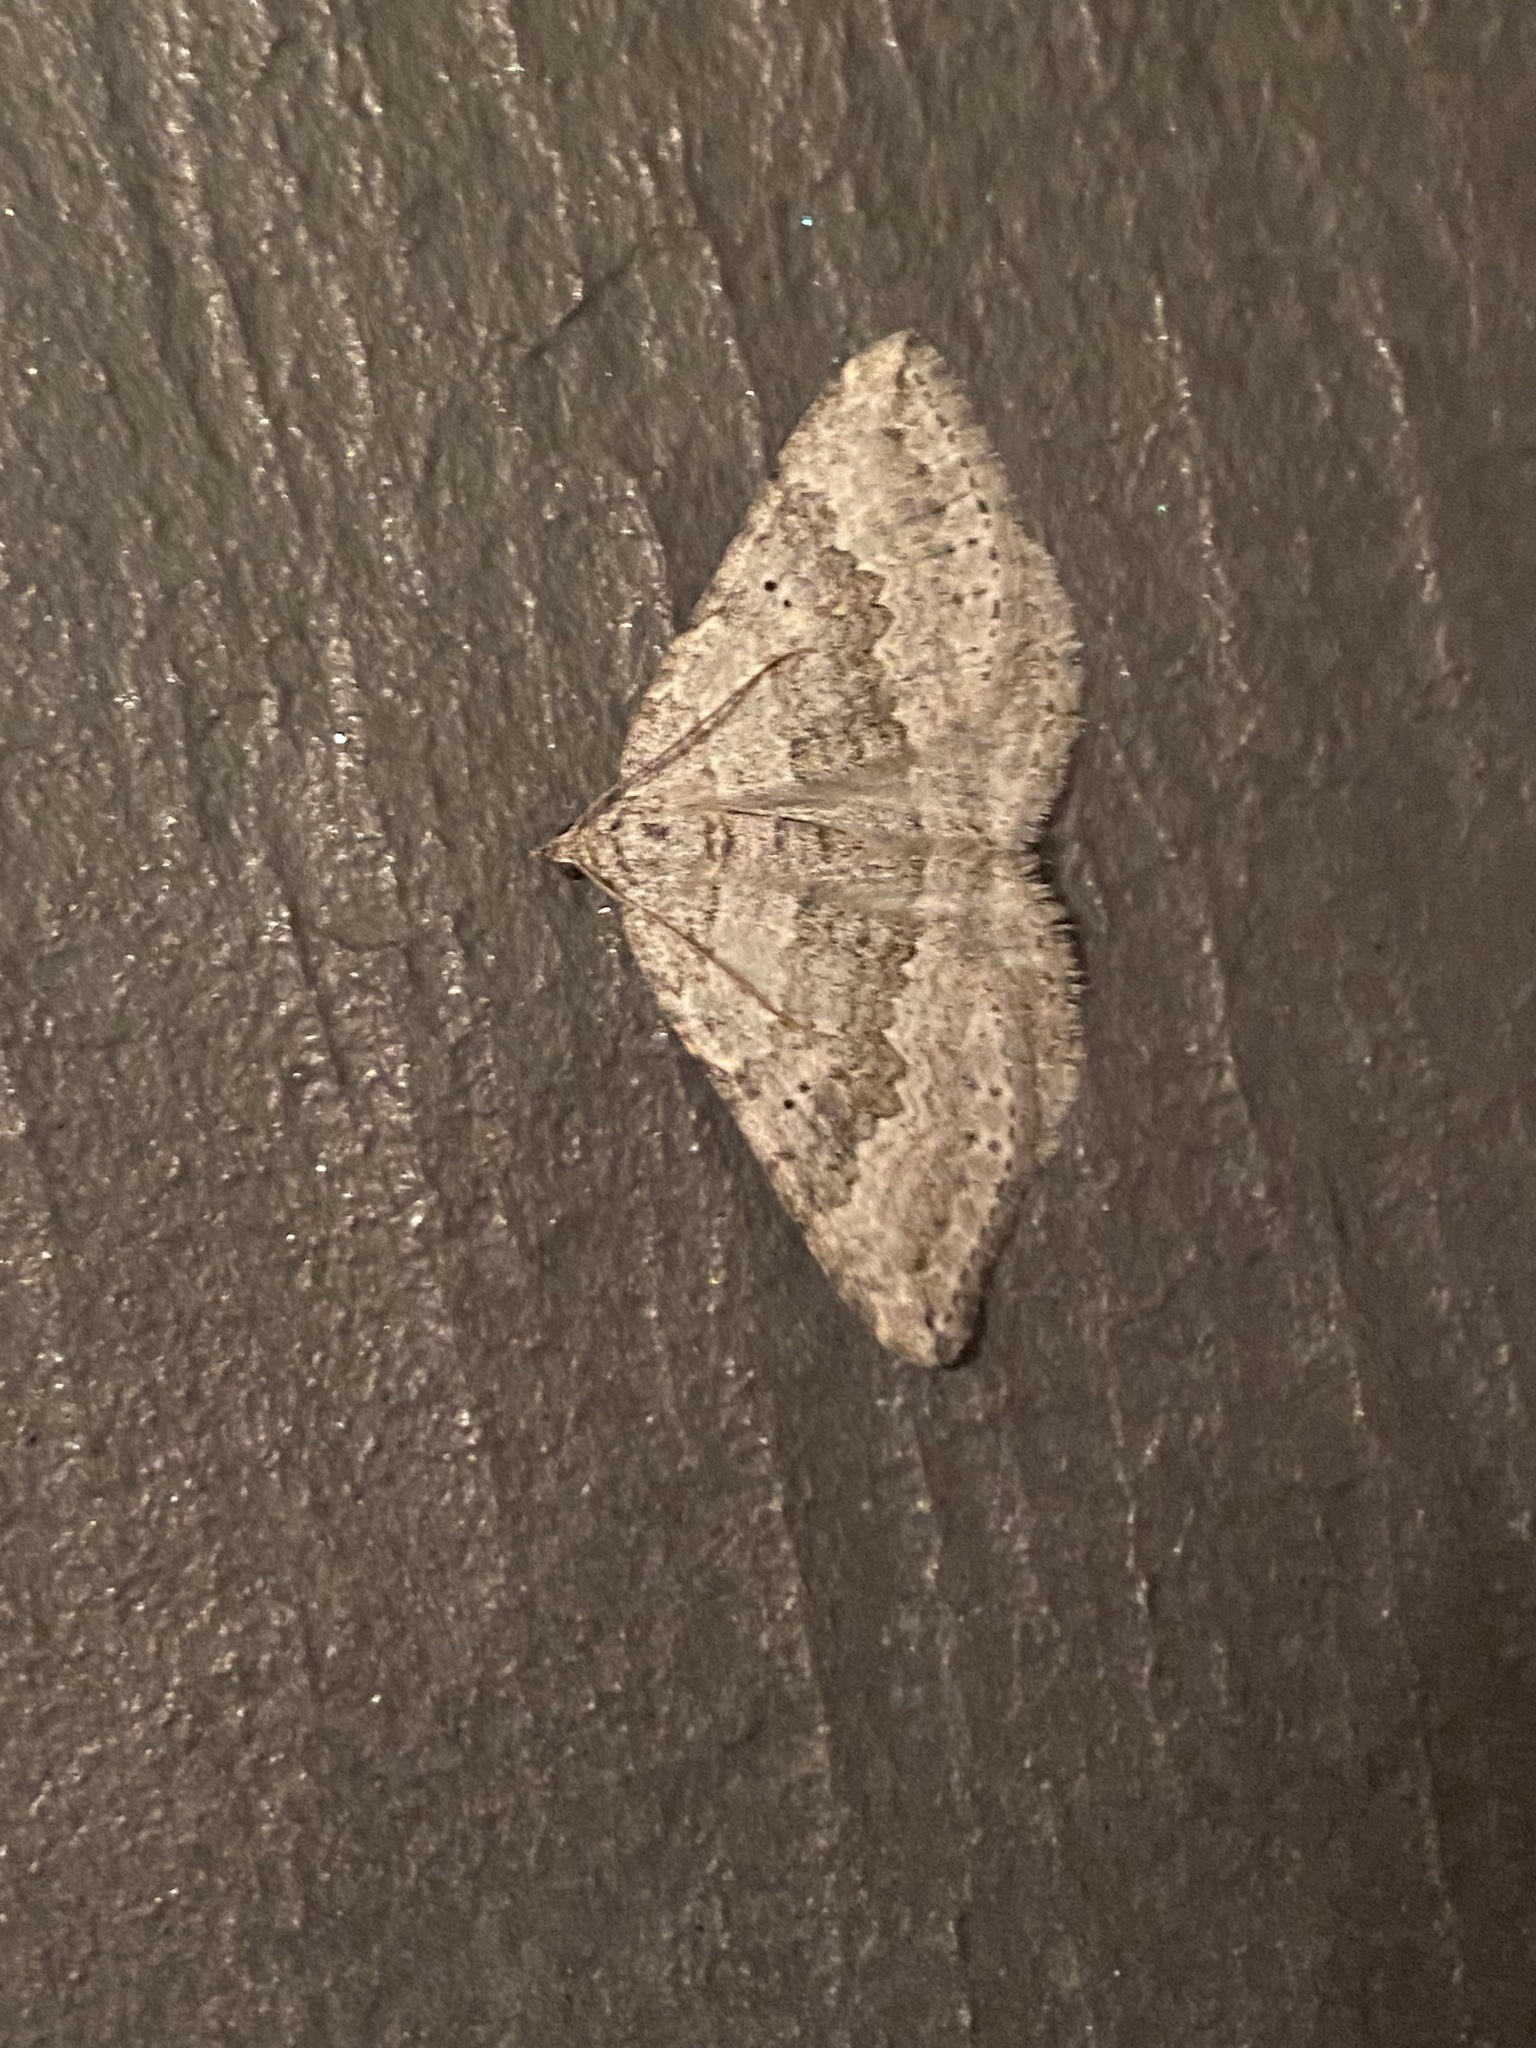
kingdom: Animalia
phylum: Arthropoda
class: Insecta
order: Lepidoptera
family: Geometridae
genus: Scotopteryx
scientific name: Scotopteryx bipunctaria
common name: Chalk carpet
